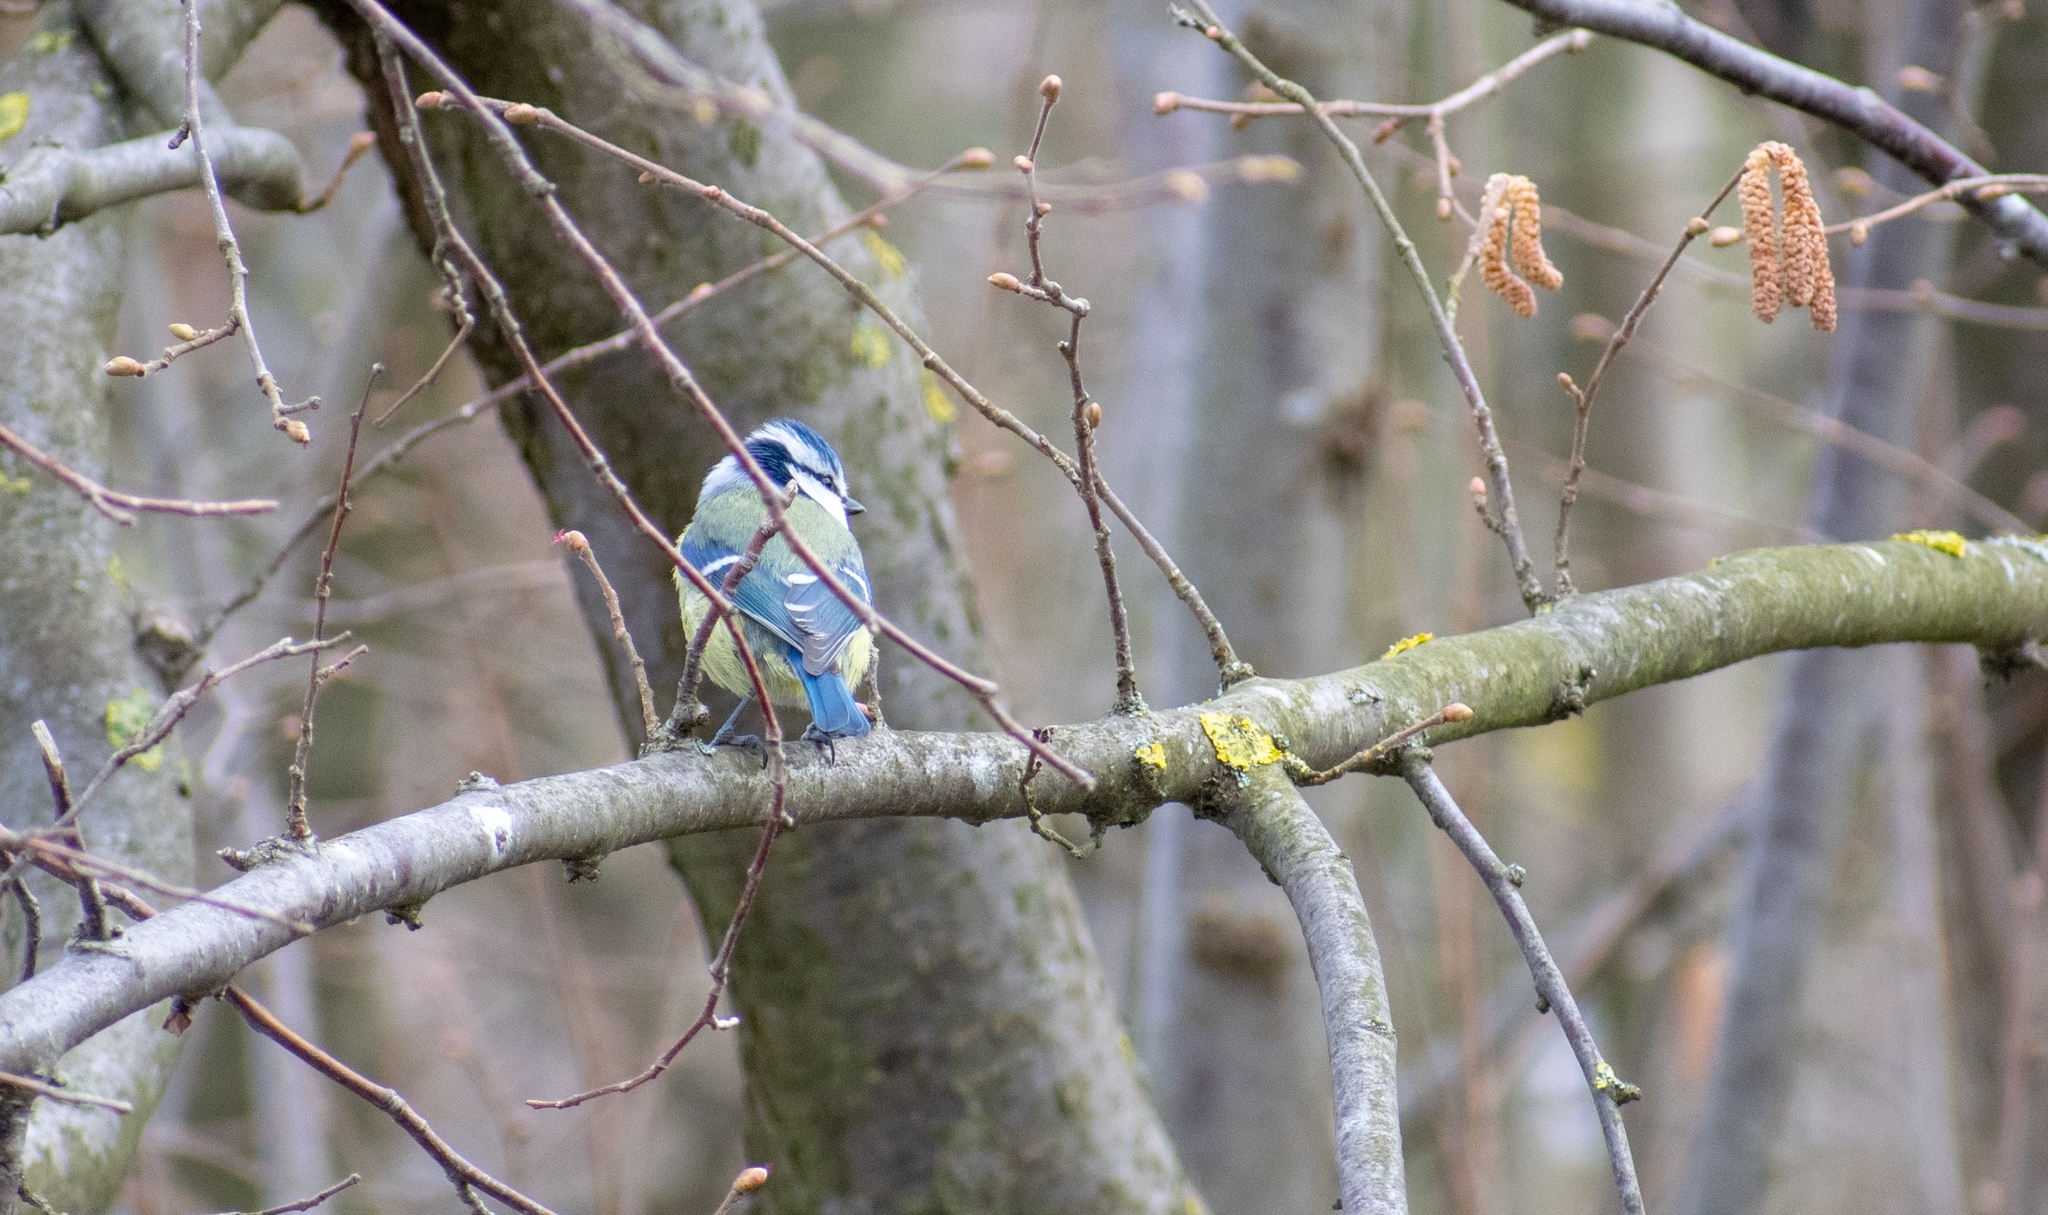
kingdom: Animalia
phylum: Chordata
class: Aves
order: Passeriformes
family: Paridae
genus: Cyanistes
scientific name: Cyanistes caeruleus
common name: Eurasian blue tit
